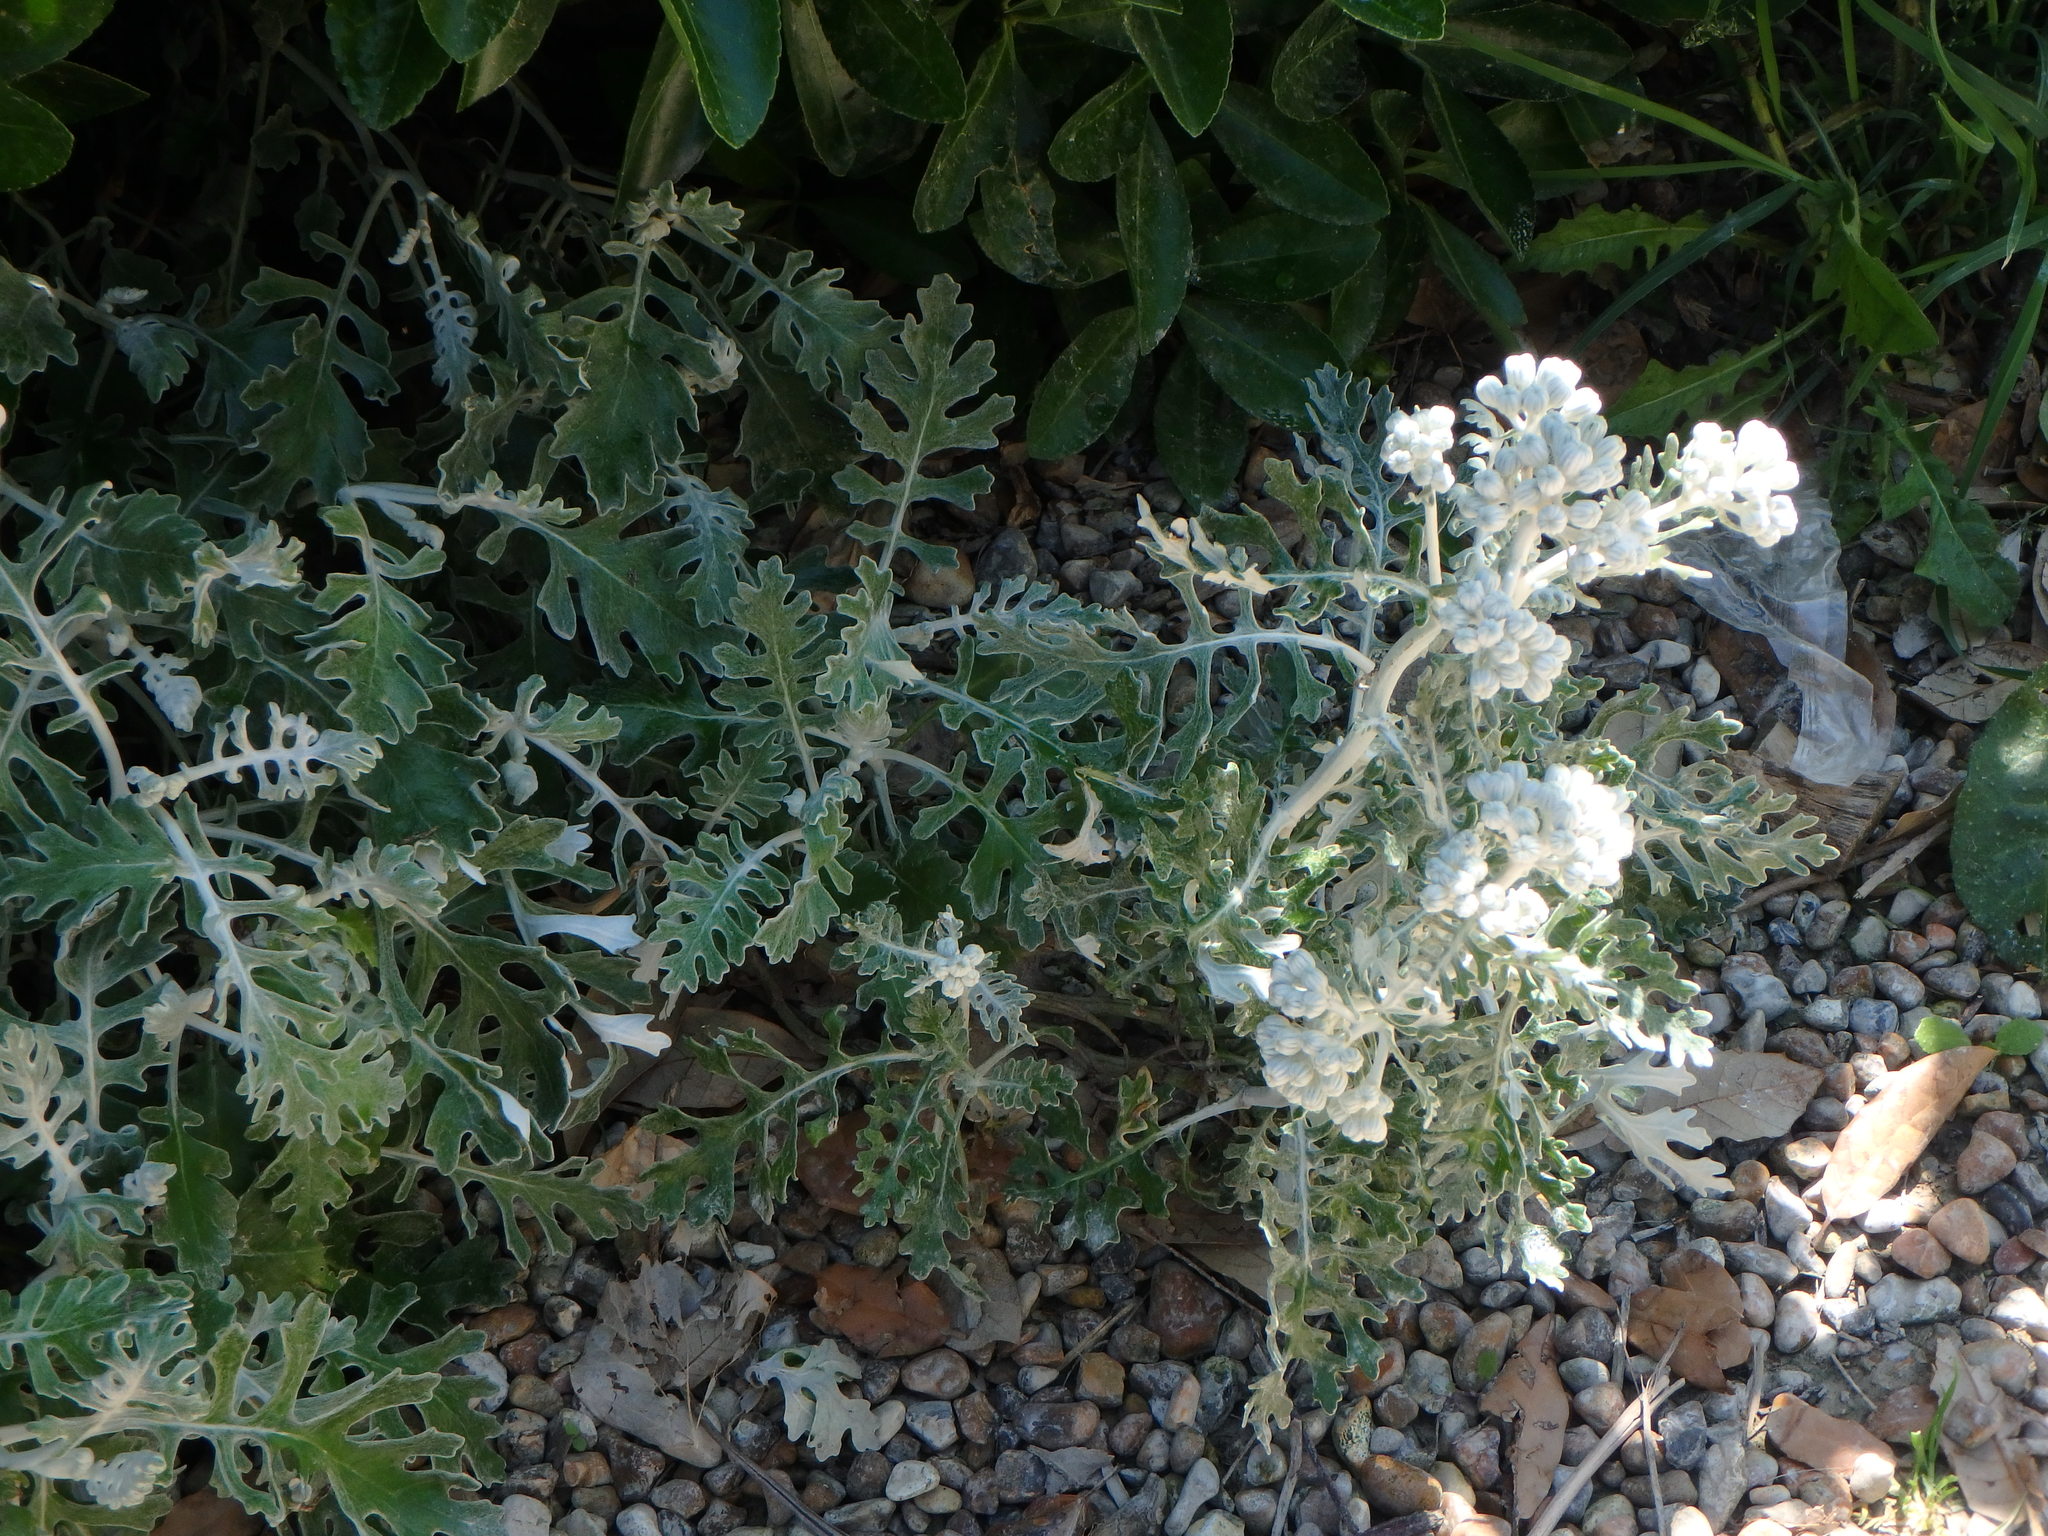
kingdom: Plantae
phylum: Tracheophyta
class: Magnoliopsida
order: Asterales
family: Asteraceae
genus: Jacobaea
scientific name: Jacobaea maritima
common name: Silver ragwort
